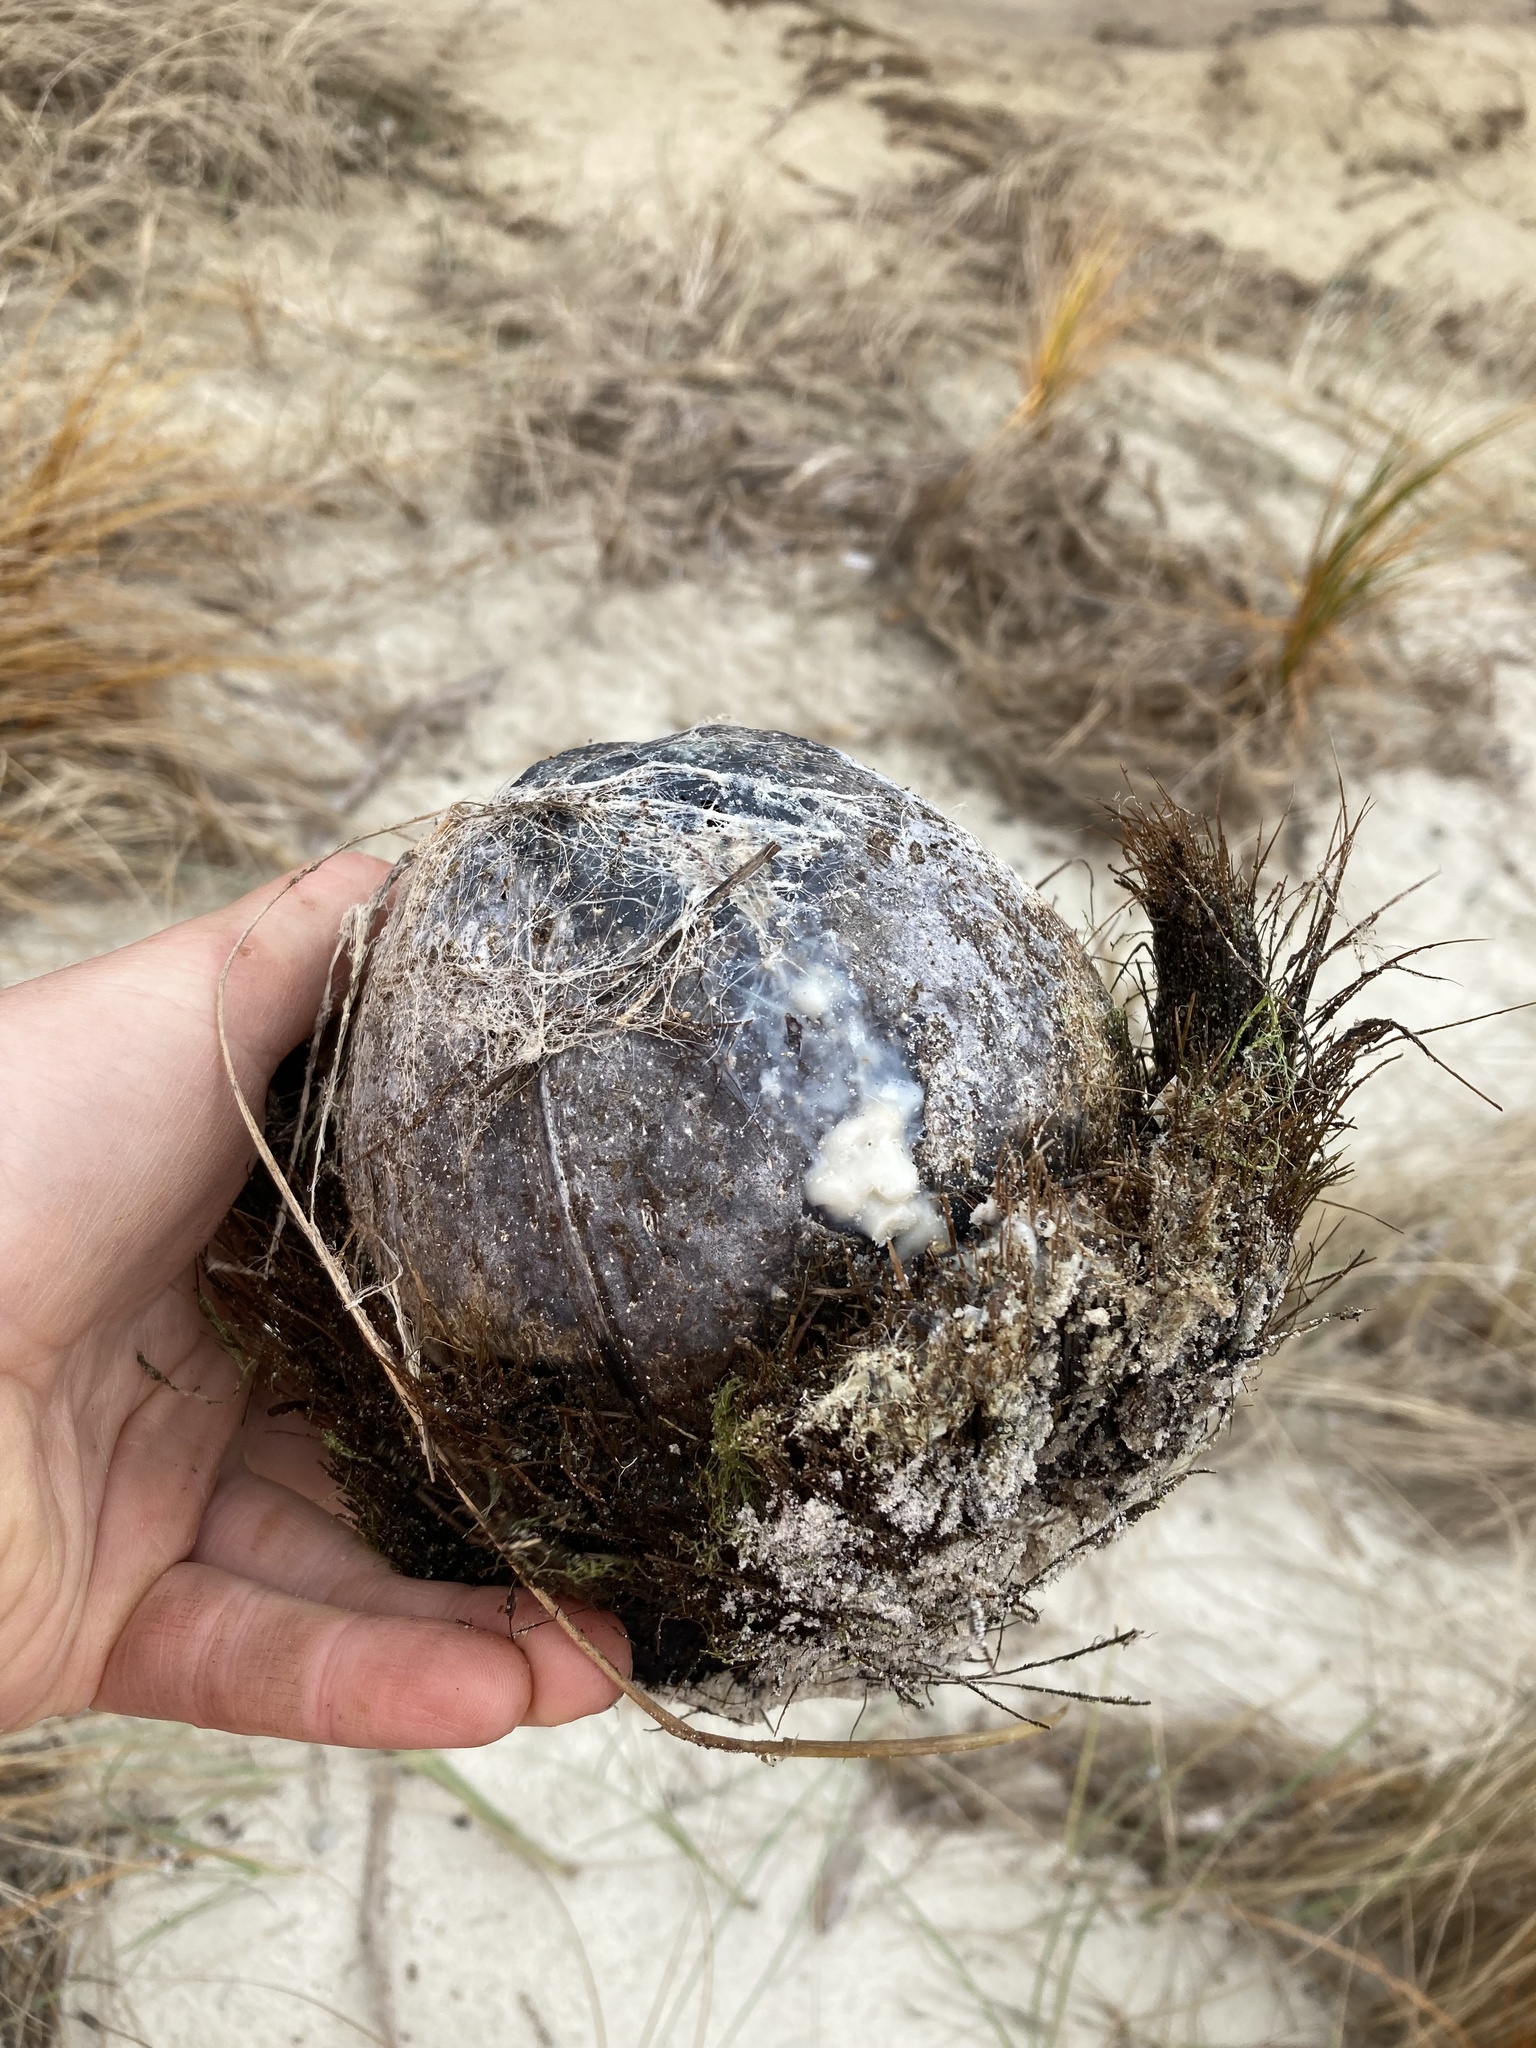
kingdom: Plantae
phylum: Tracheophyta
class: Liliopsida
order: Arecales
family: Arecaceae
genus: Cocos
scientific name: Cocos nucifera
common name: Coconut palm
